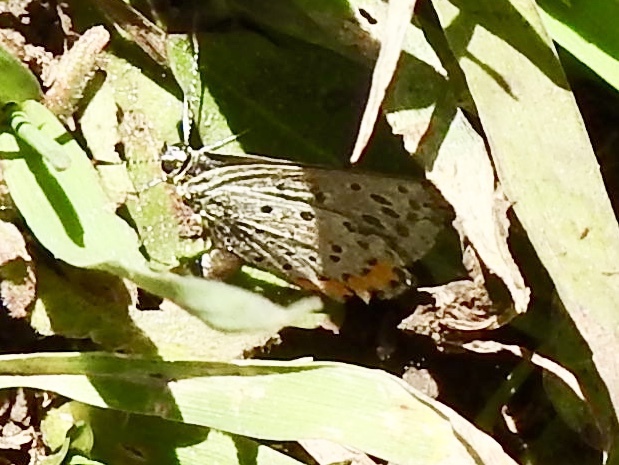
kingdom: Animalia
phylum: Arthropoda
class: Insecta
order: Lepidoptera
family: Lycaenidae
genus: Icaricia
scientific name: Icaricia lupini
